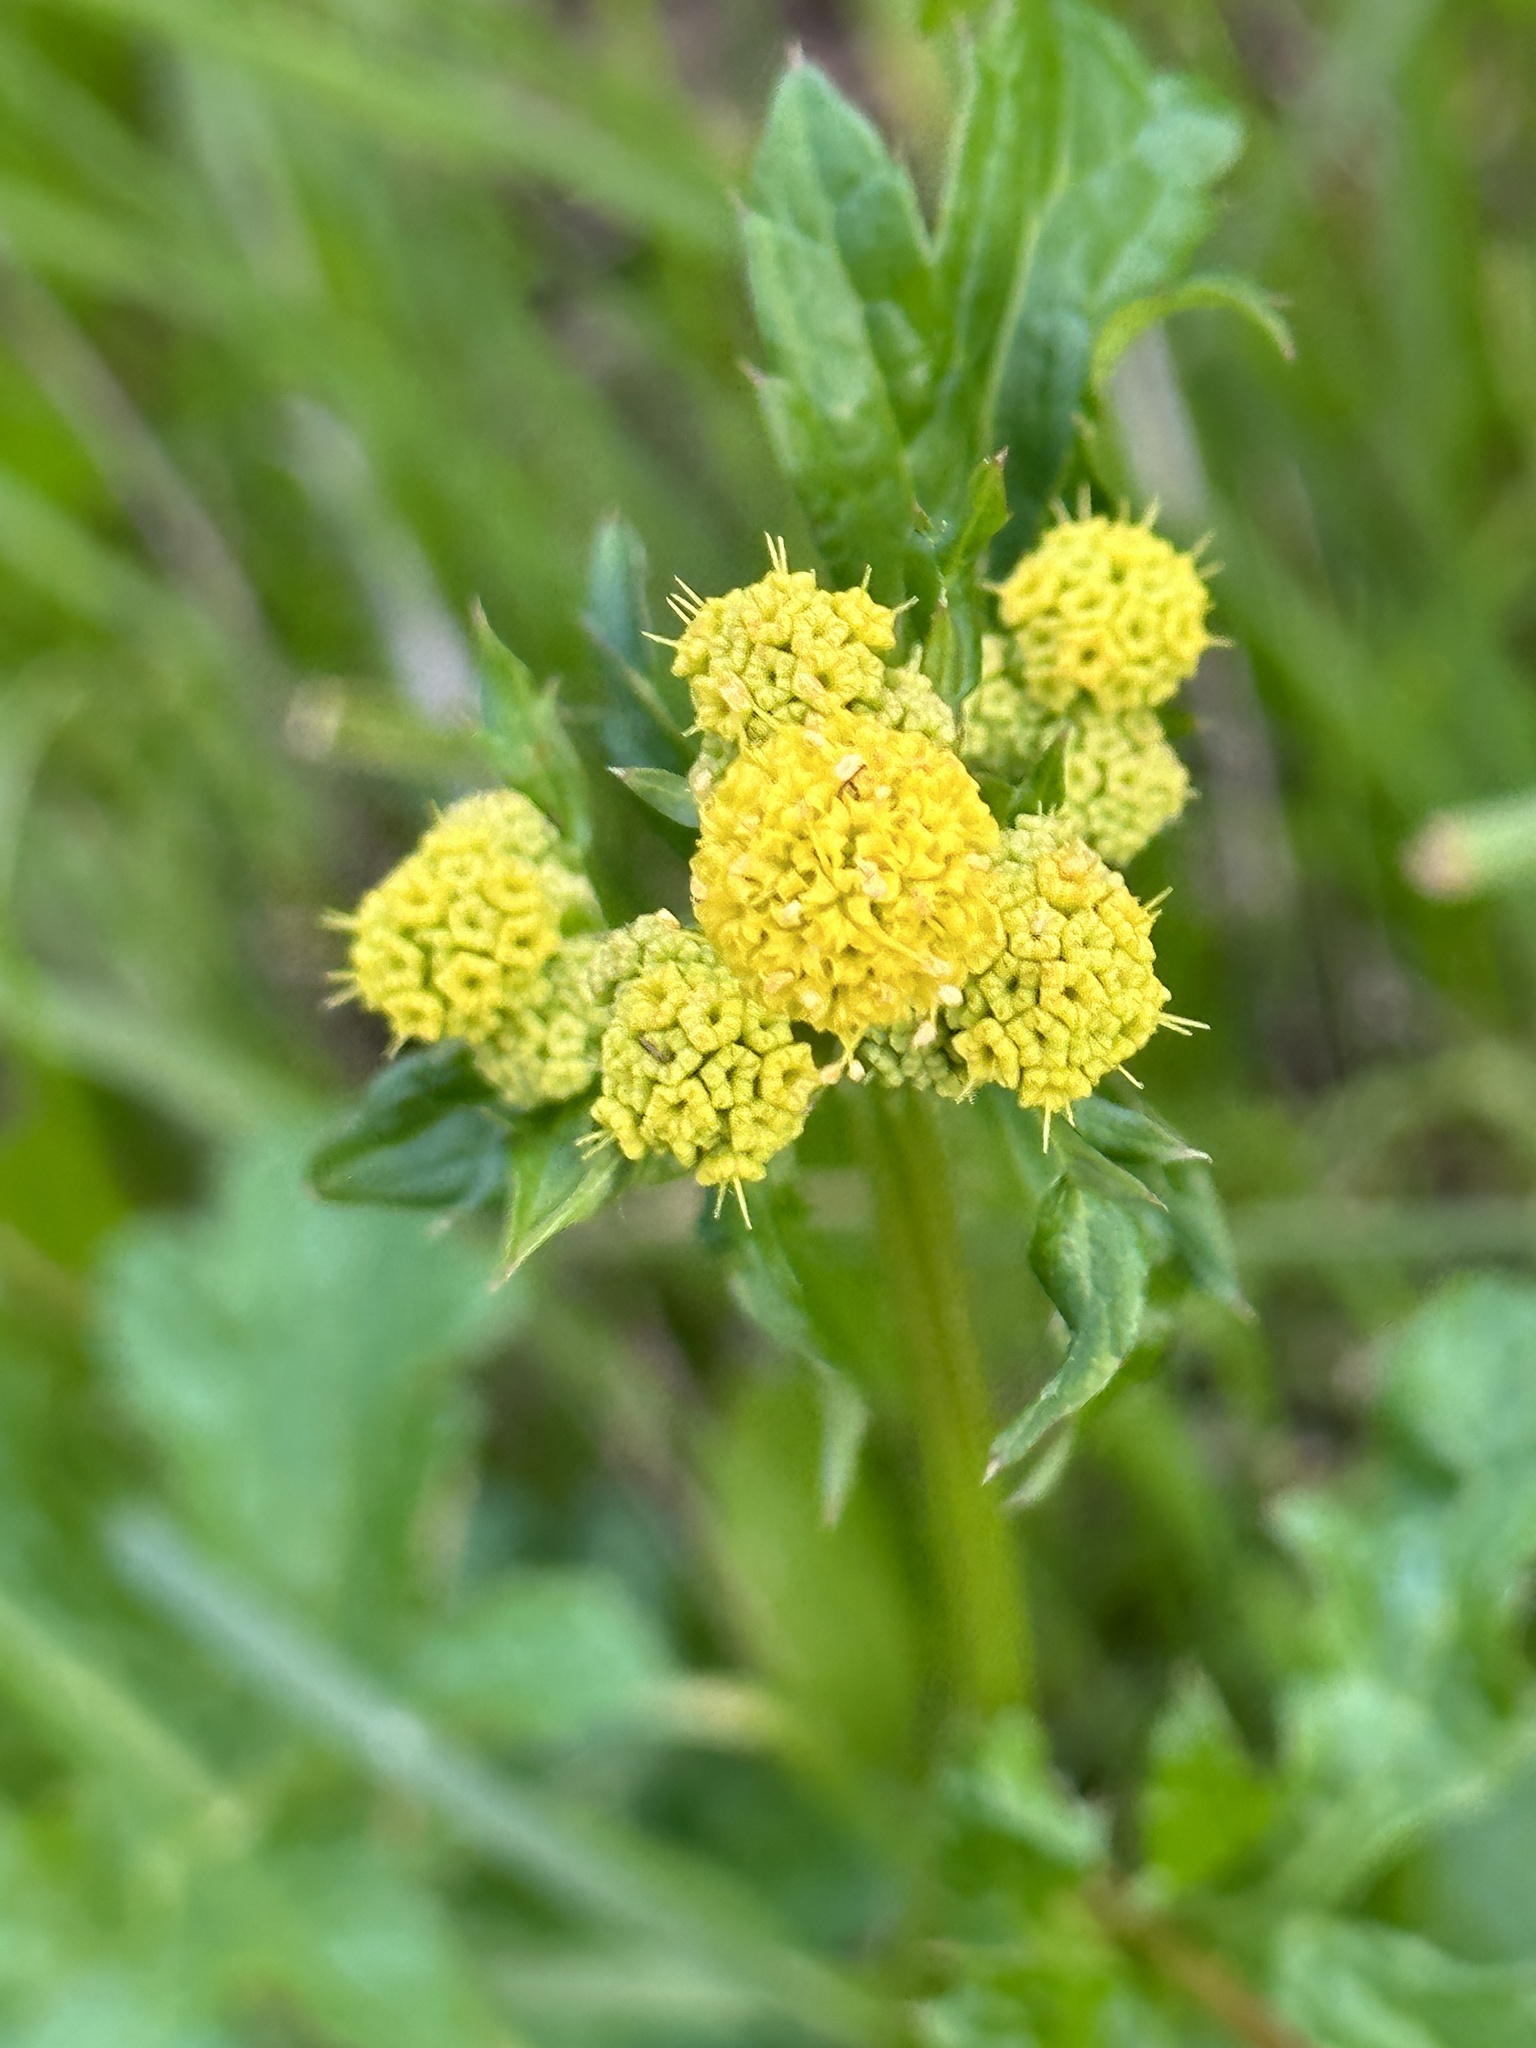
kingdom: Plantae
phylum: Tracheophyta
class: Magnoliopsida
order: Apiales
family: Apiaceae
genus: Sanicula
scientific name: Sanicula crassicaulis
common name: Western snakeroot
